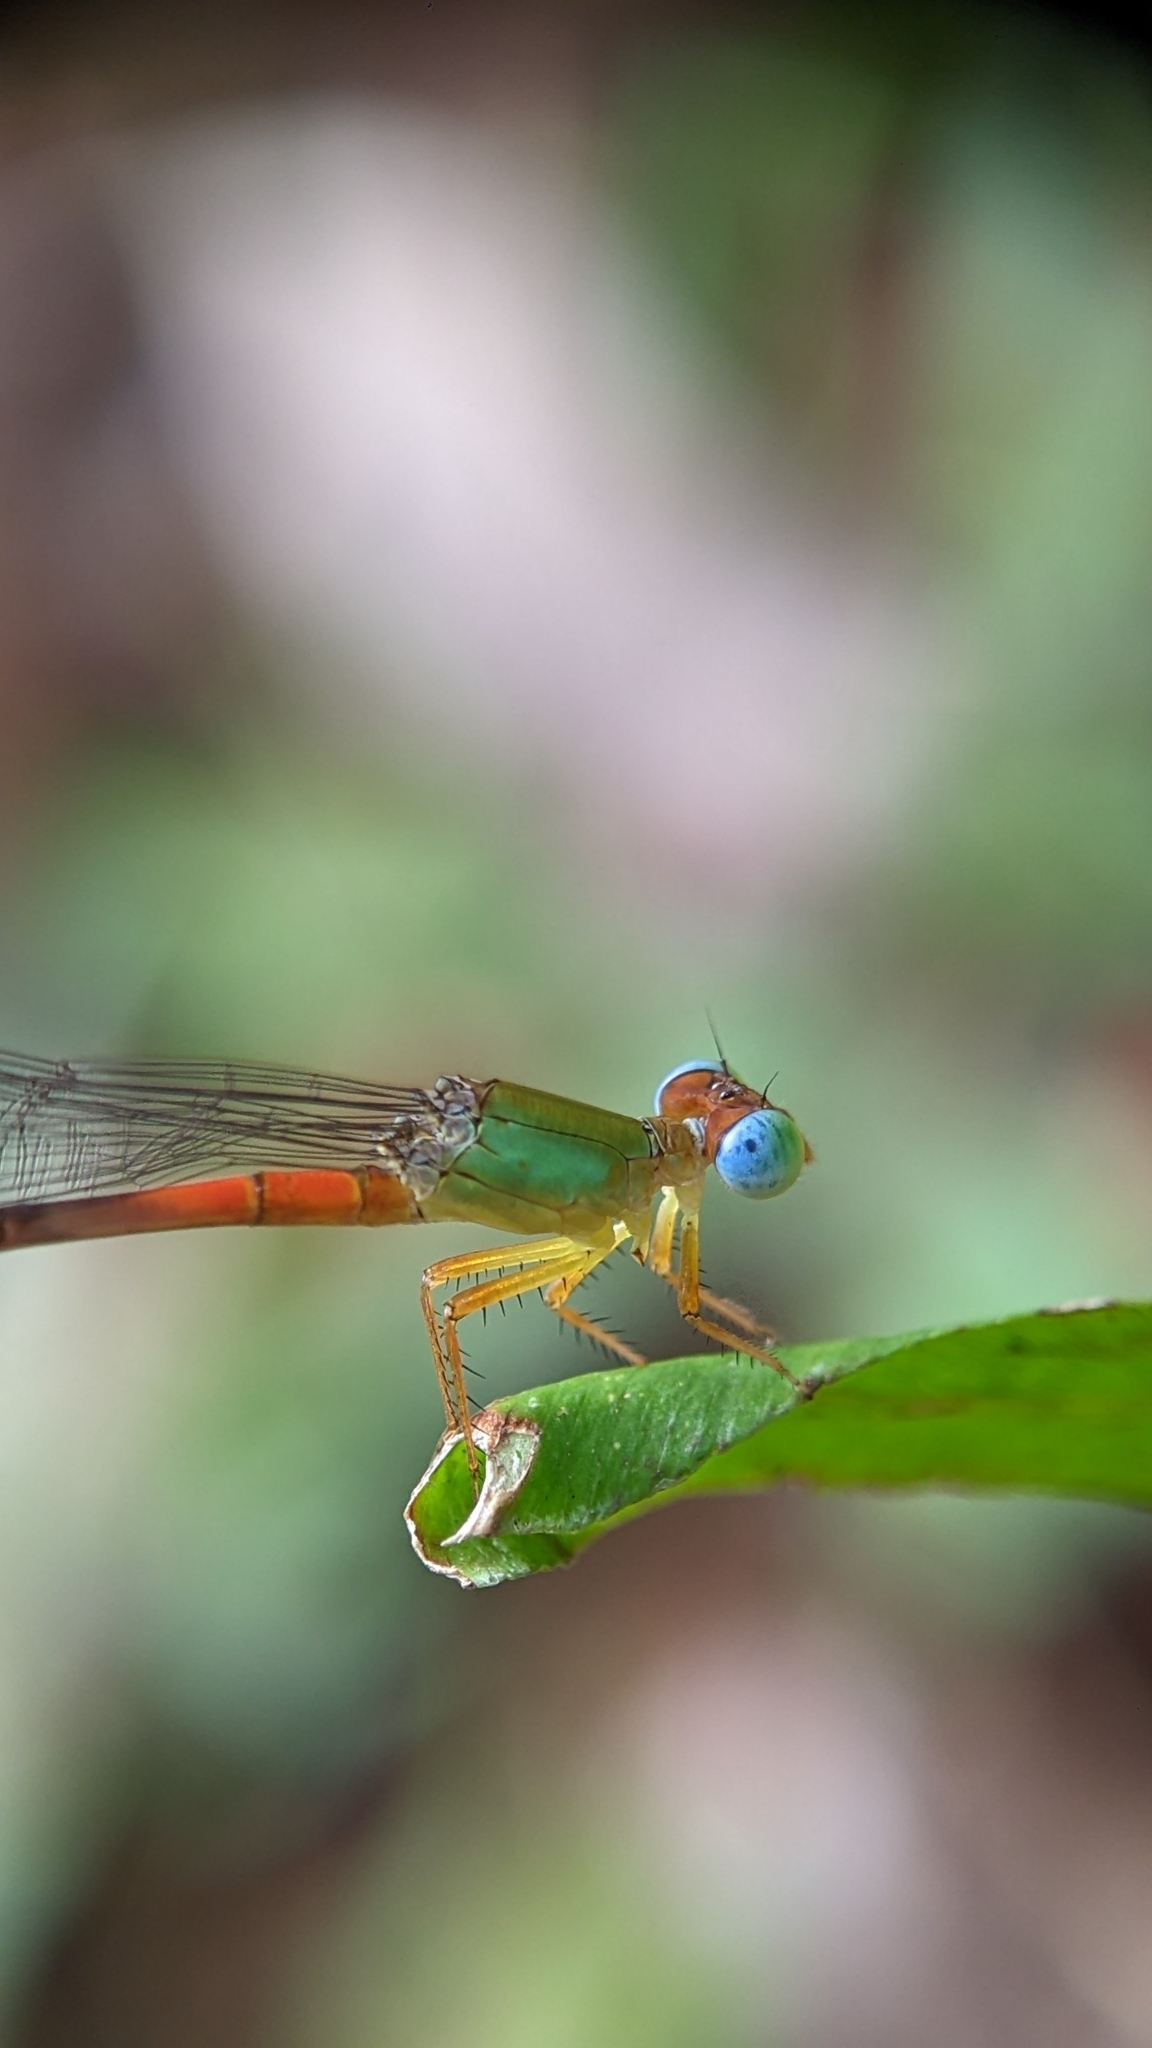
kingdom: Animalia
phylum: Arthropoda
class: Insecta
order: Odonata
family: Coenagrionidae
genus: Ceriagrion
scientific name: Ceriagrion cerinorubellum
